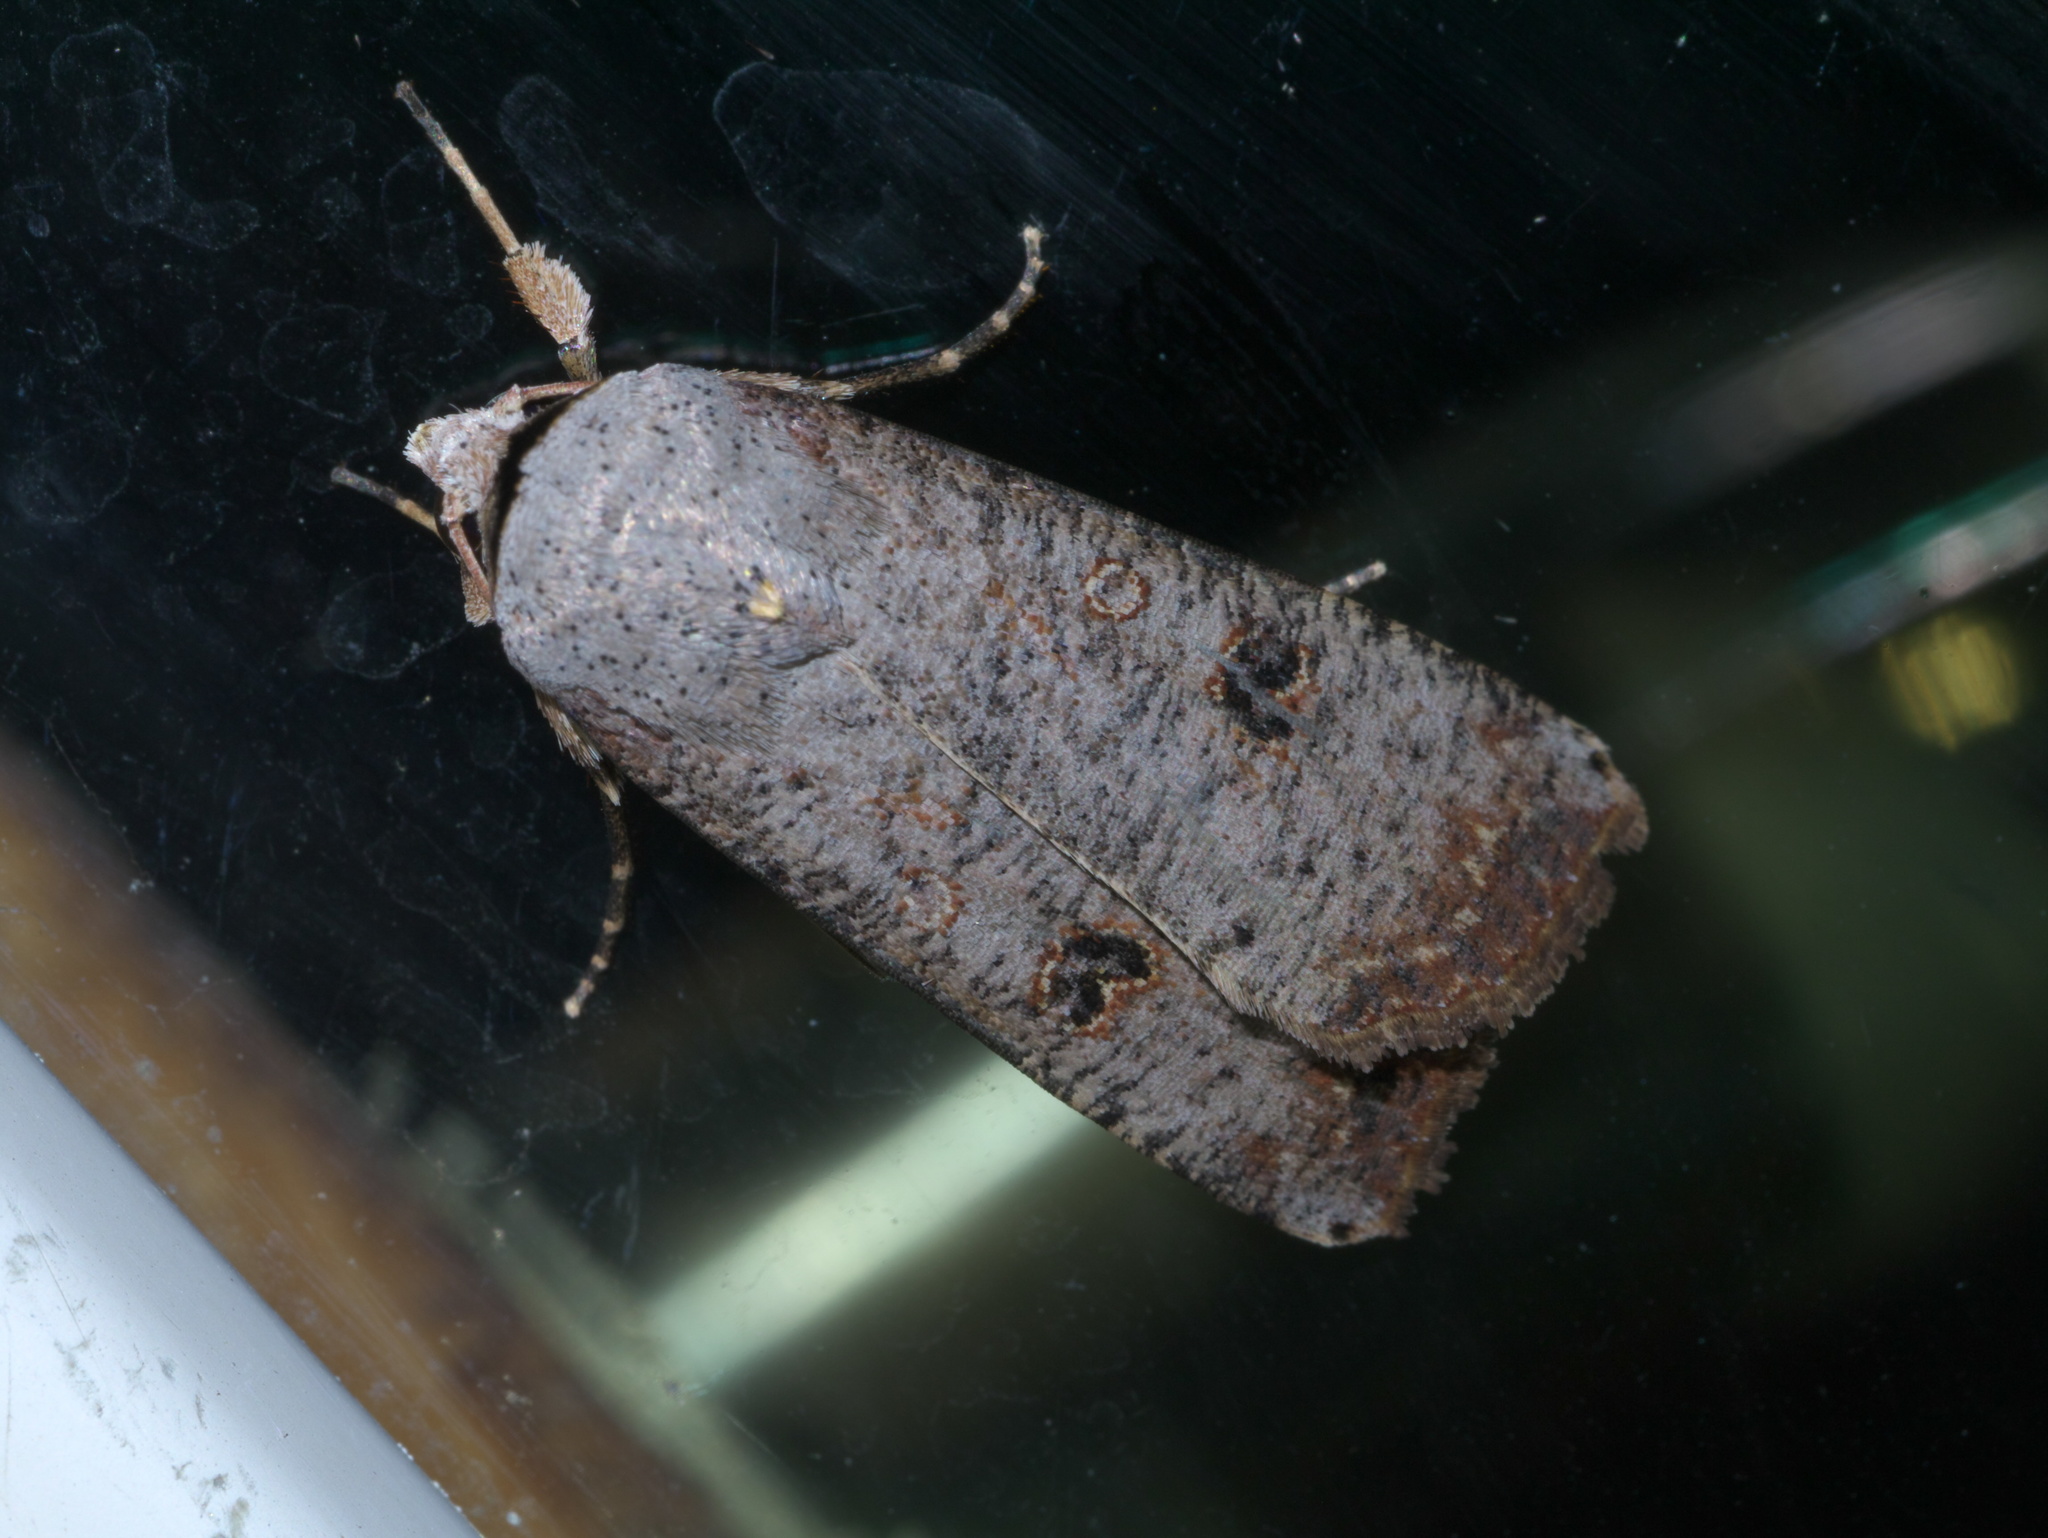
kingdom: Animalia
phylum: Arthropoda
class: Insecta
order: Lepidoptera
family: Noctuidae
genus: Anicla
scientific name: Anicla infecta
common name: Green cutworm
